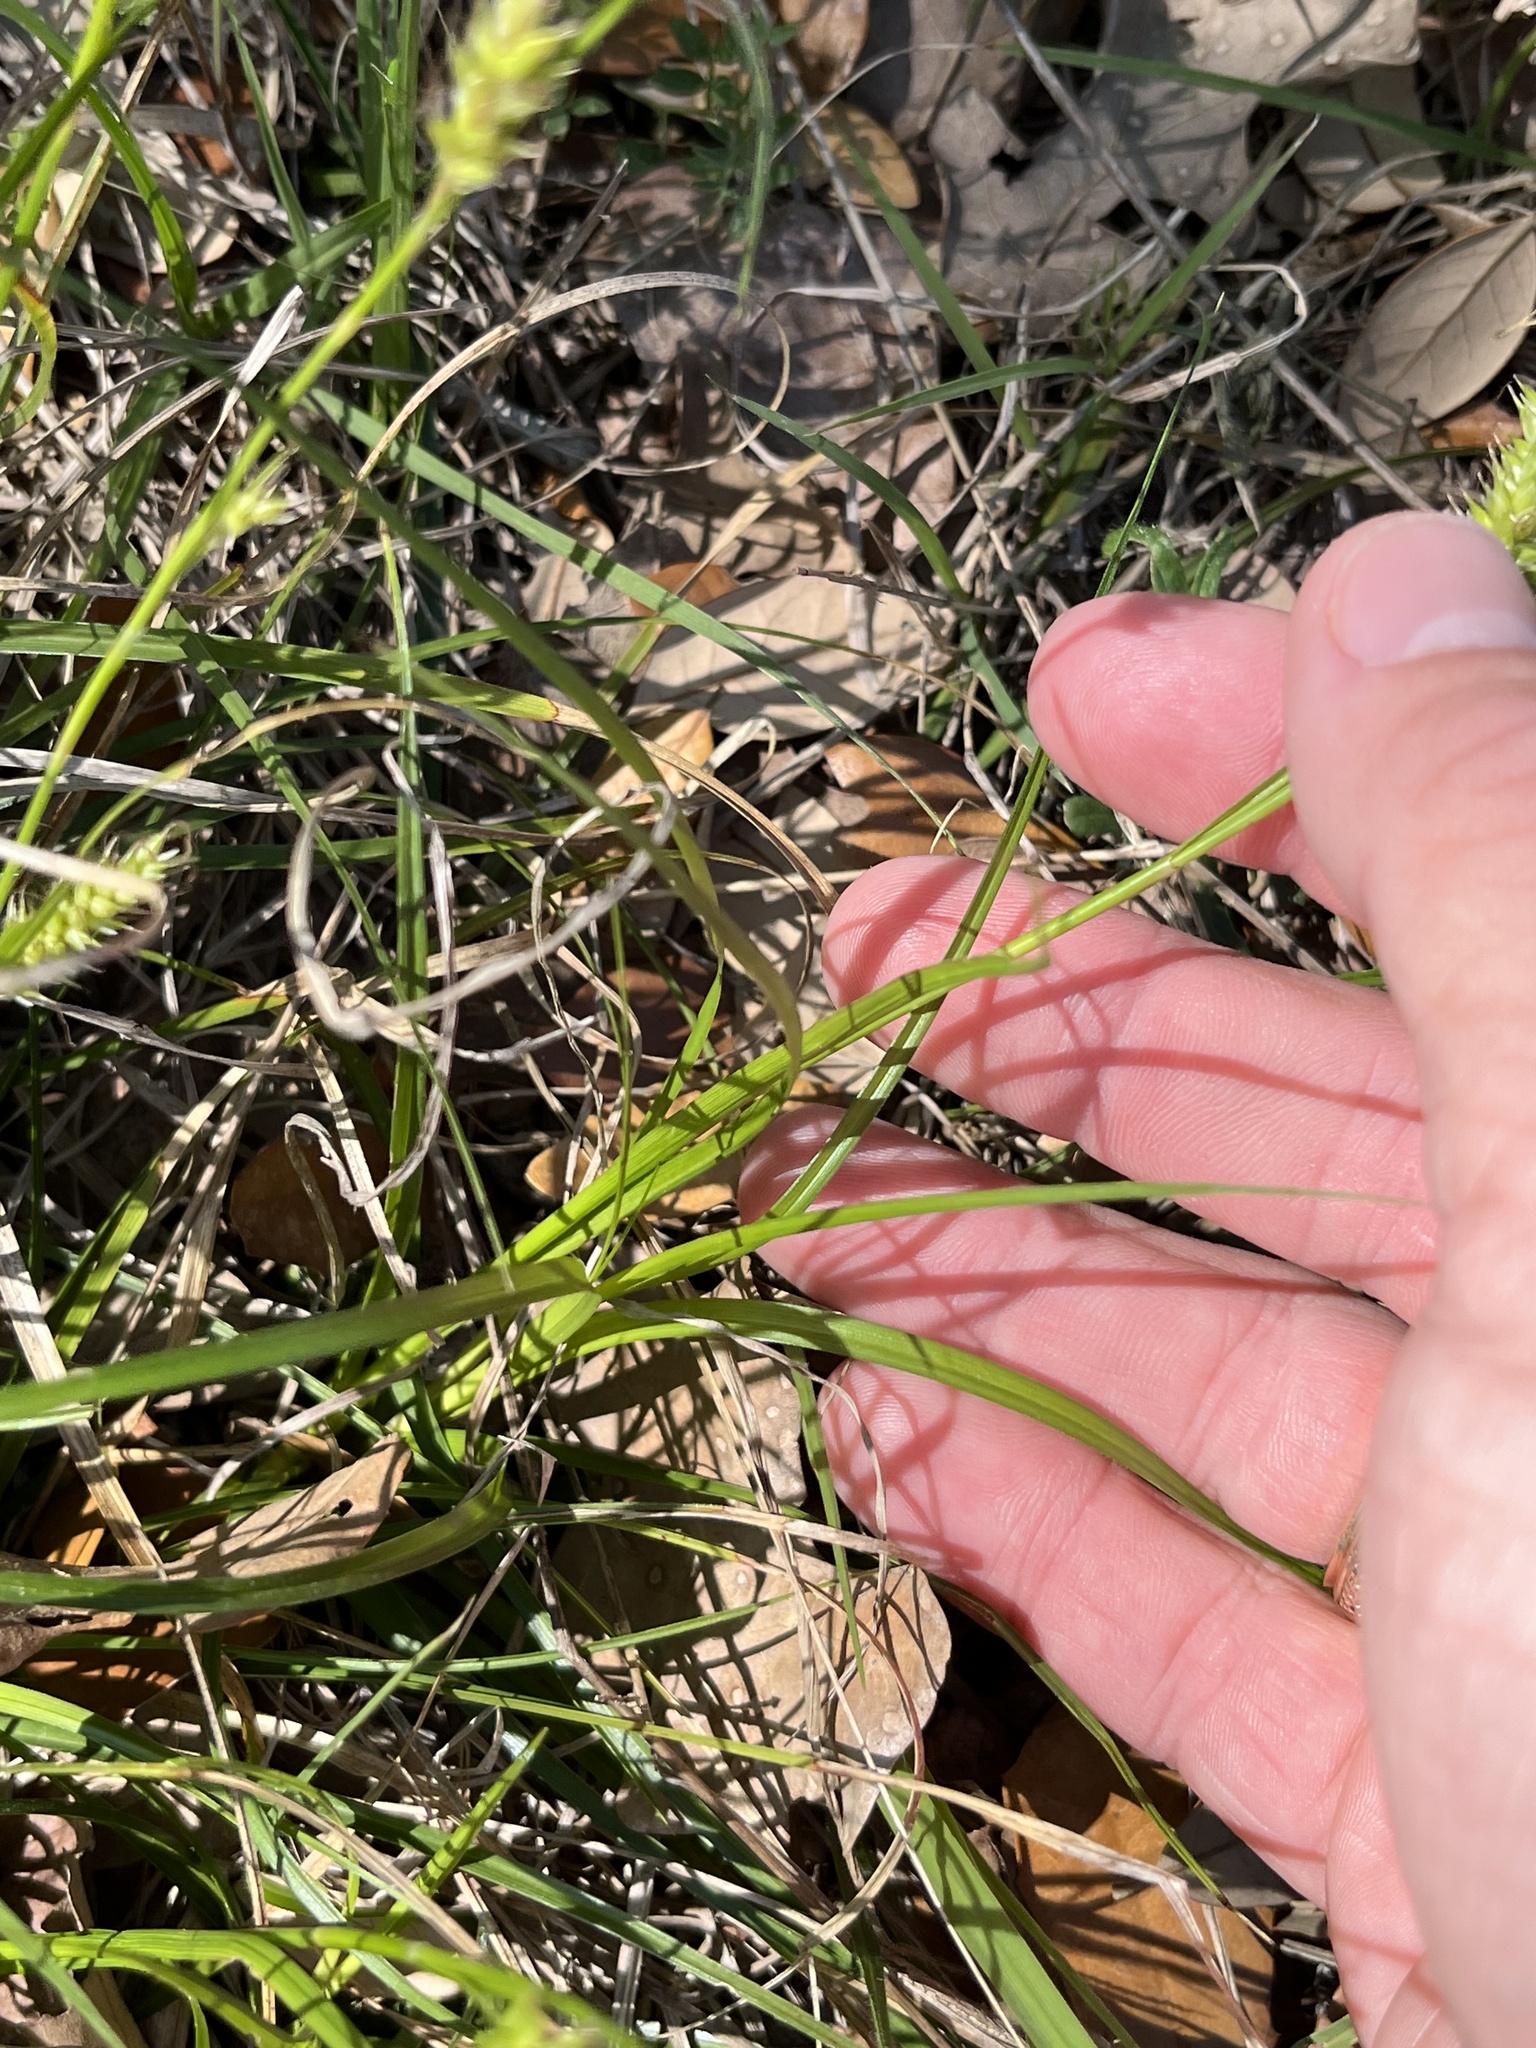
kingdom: Plantae
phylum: Tracheophyta
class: Liliopsida
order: Poales
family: Cyperaceae
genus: Carex
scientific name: Carex cherokeensis
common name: Cherokee sedge
